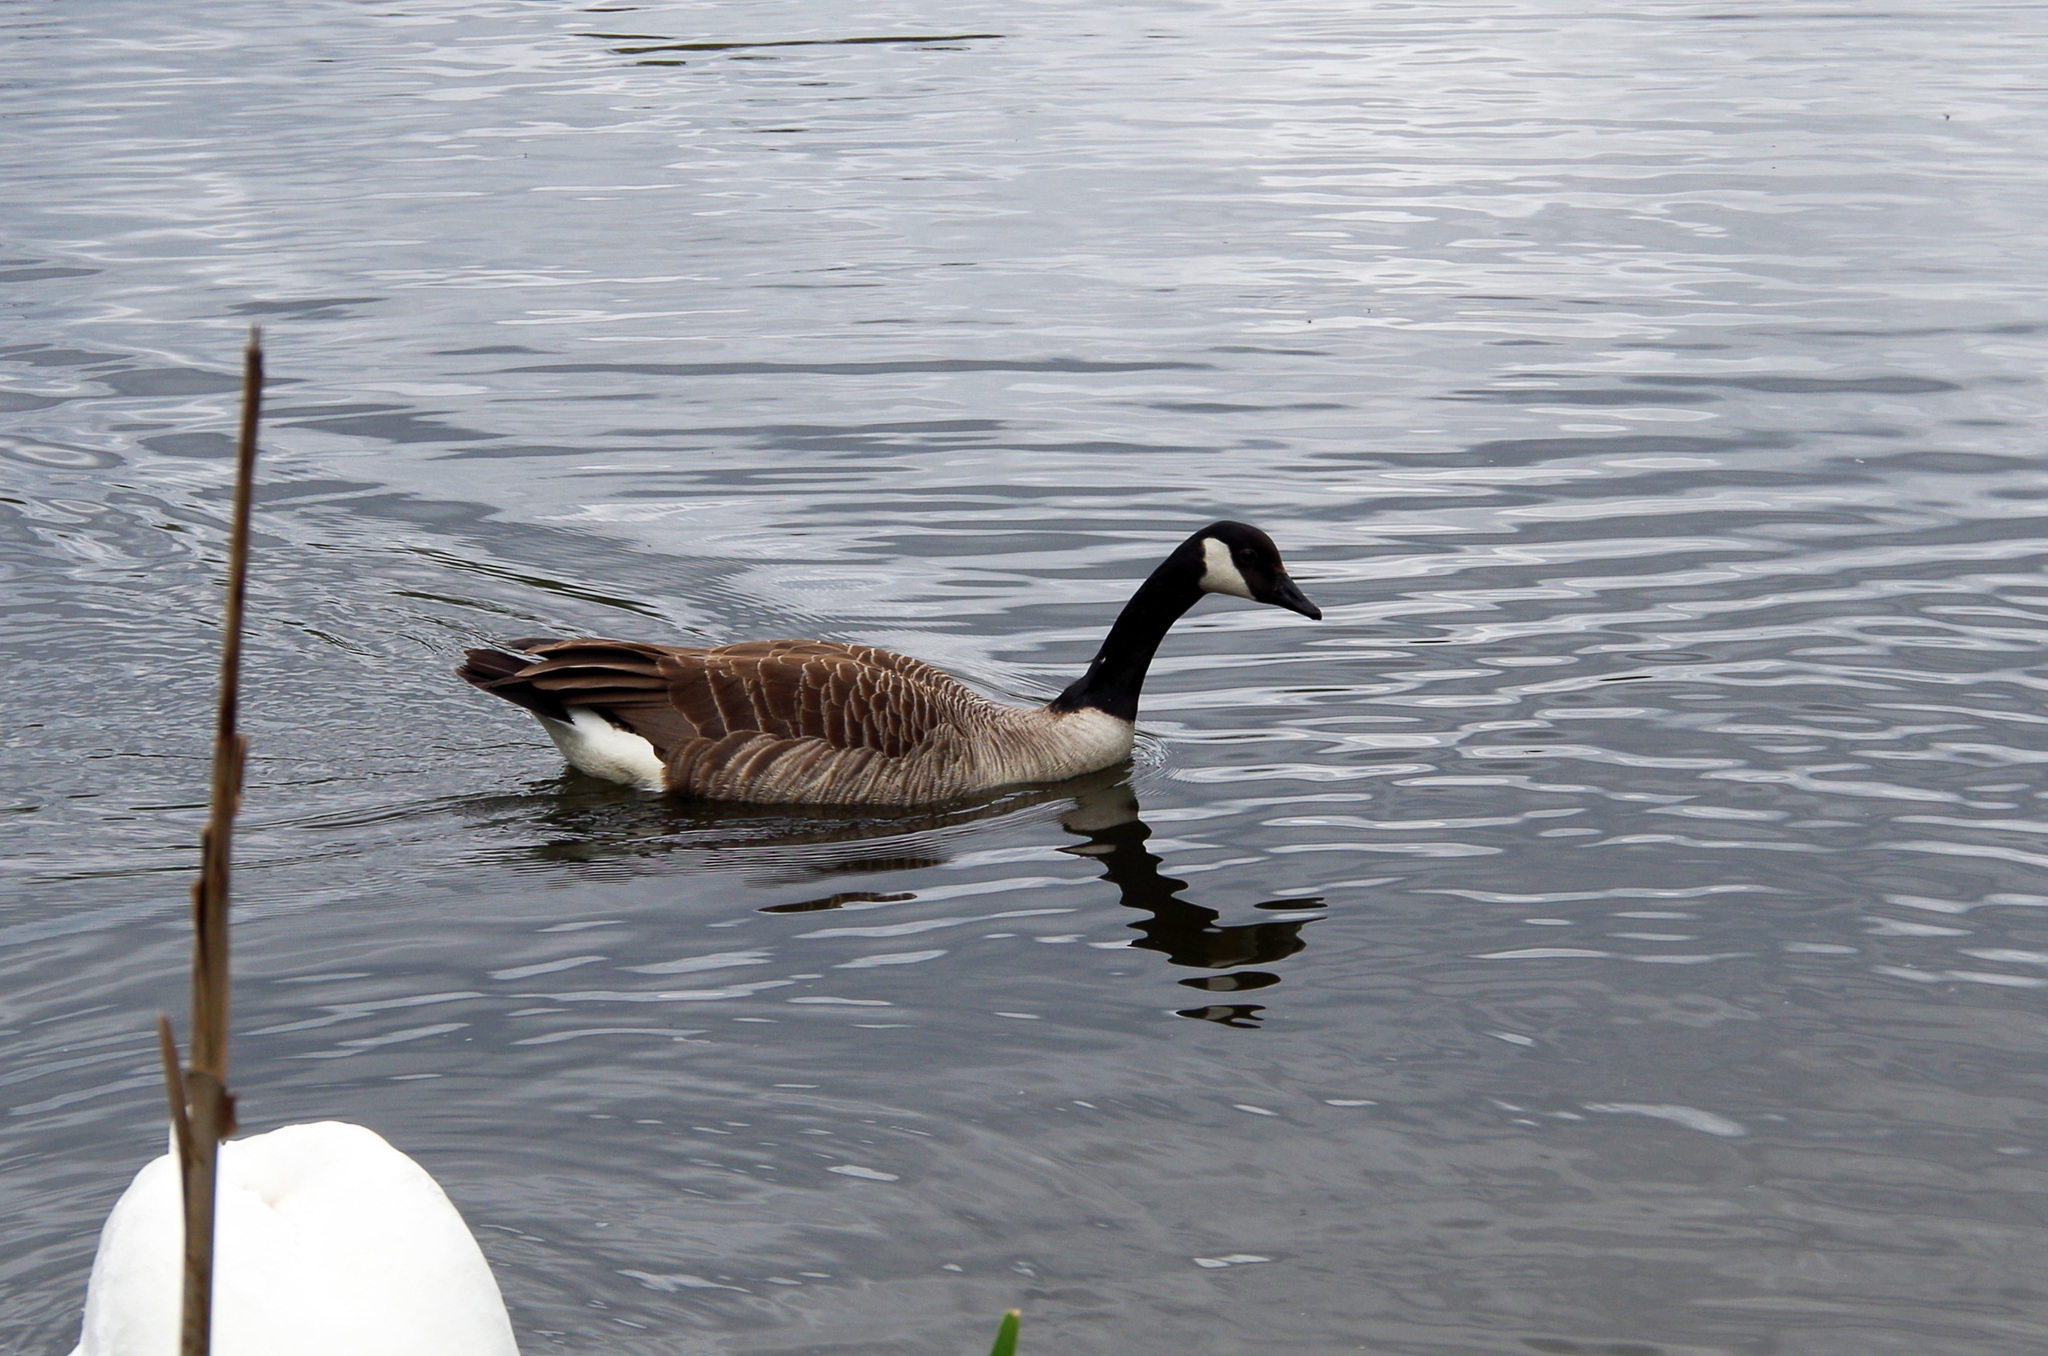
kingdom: Animalia
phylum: Chordata
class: Aves
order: Anseriformes
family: Anatidae
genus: Branta
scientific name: Branta canadensis
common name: Canada goose
